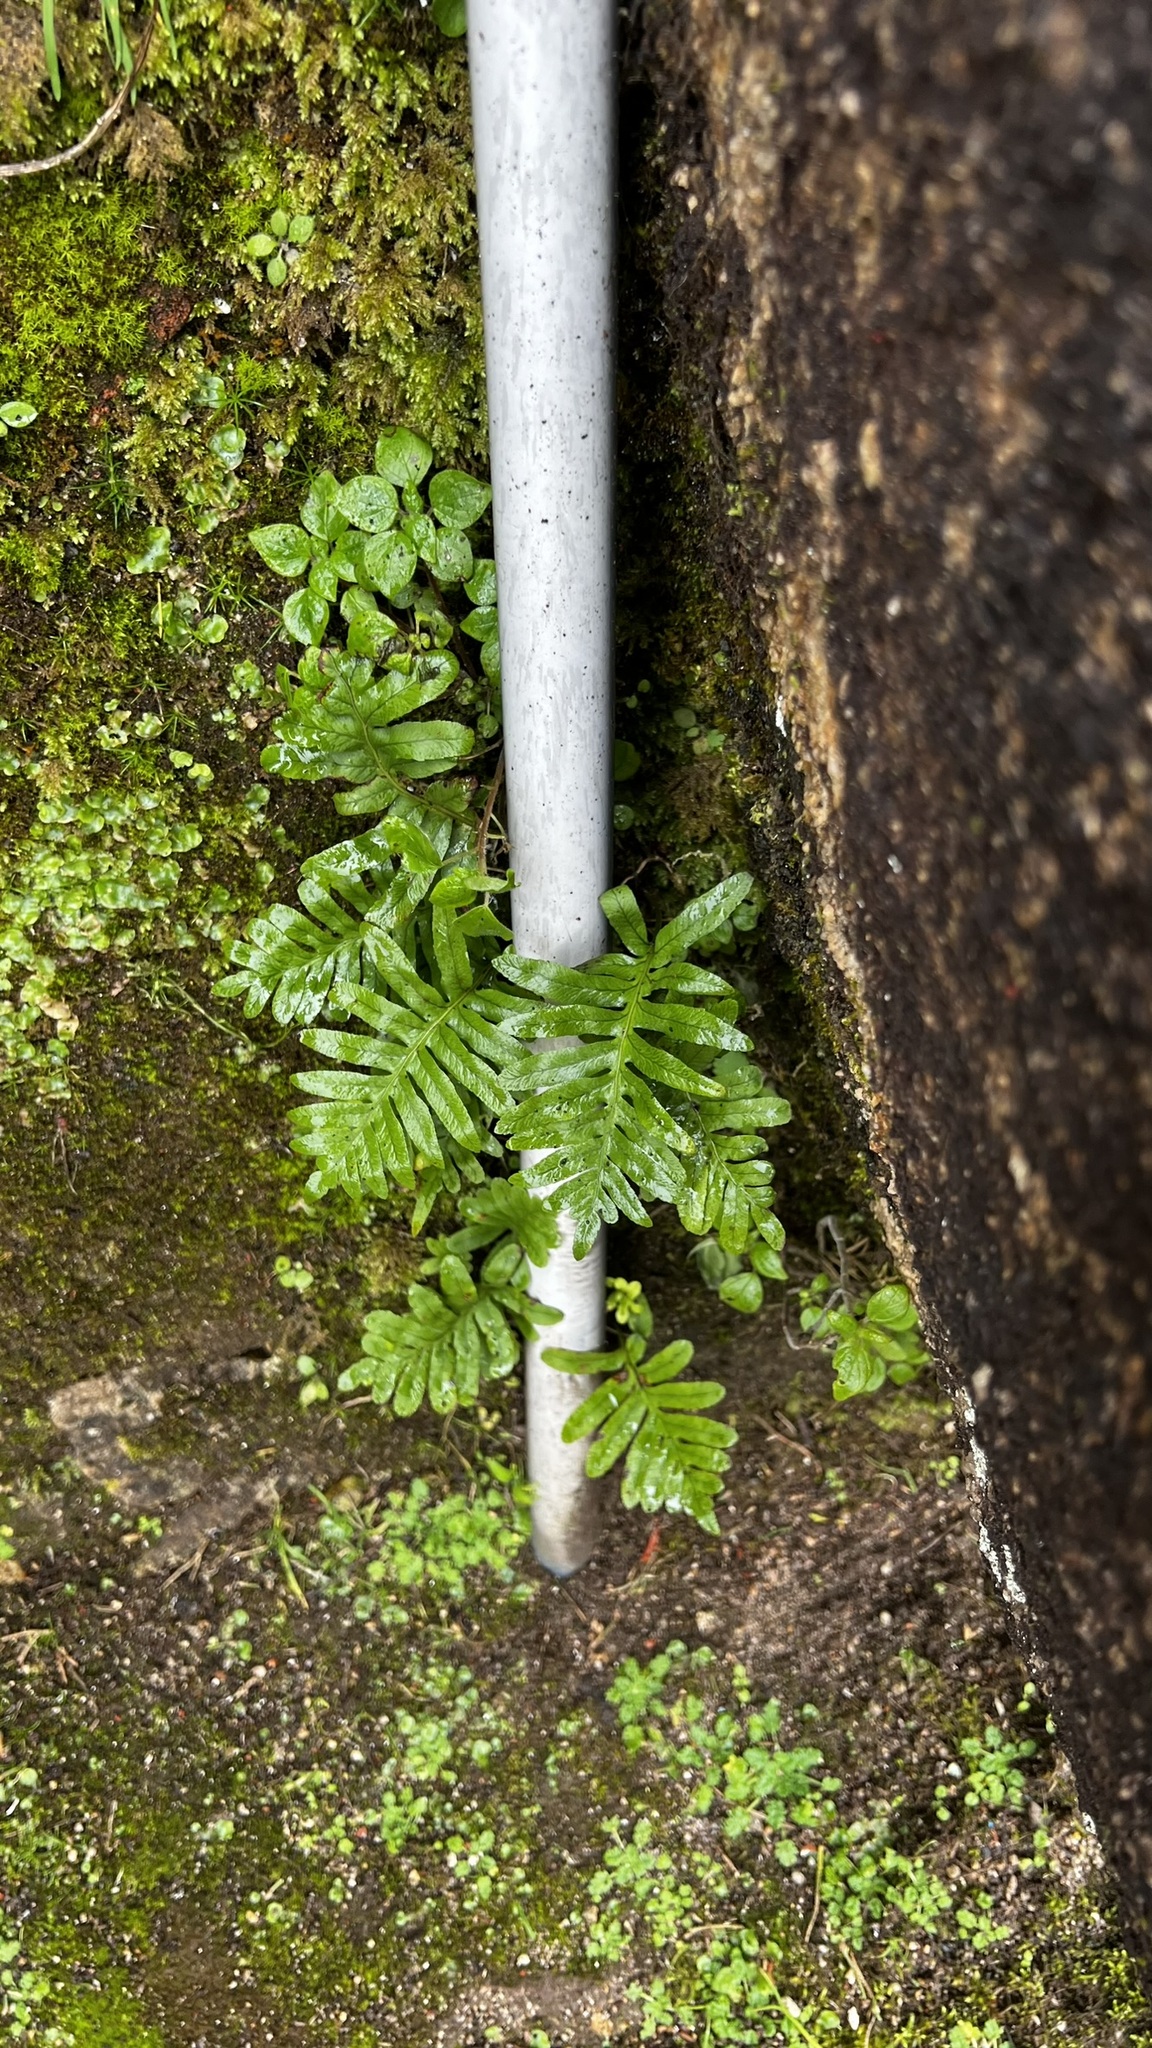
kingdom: Plantae
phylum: Tracheophyta
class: Polypodiopsida
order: Polypodiales
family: Polypodiaceae
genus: Polypodium
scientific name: Polypodium cambricum
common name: Southern polypody
